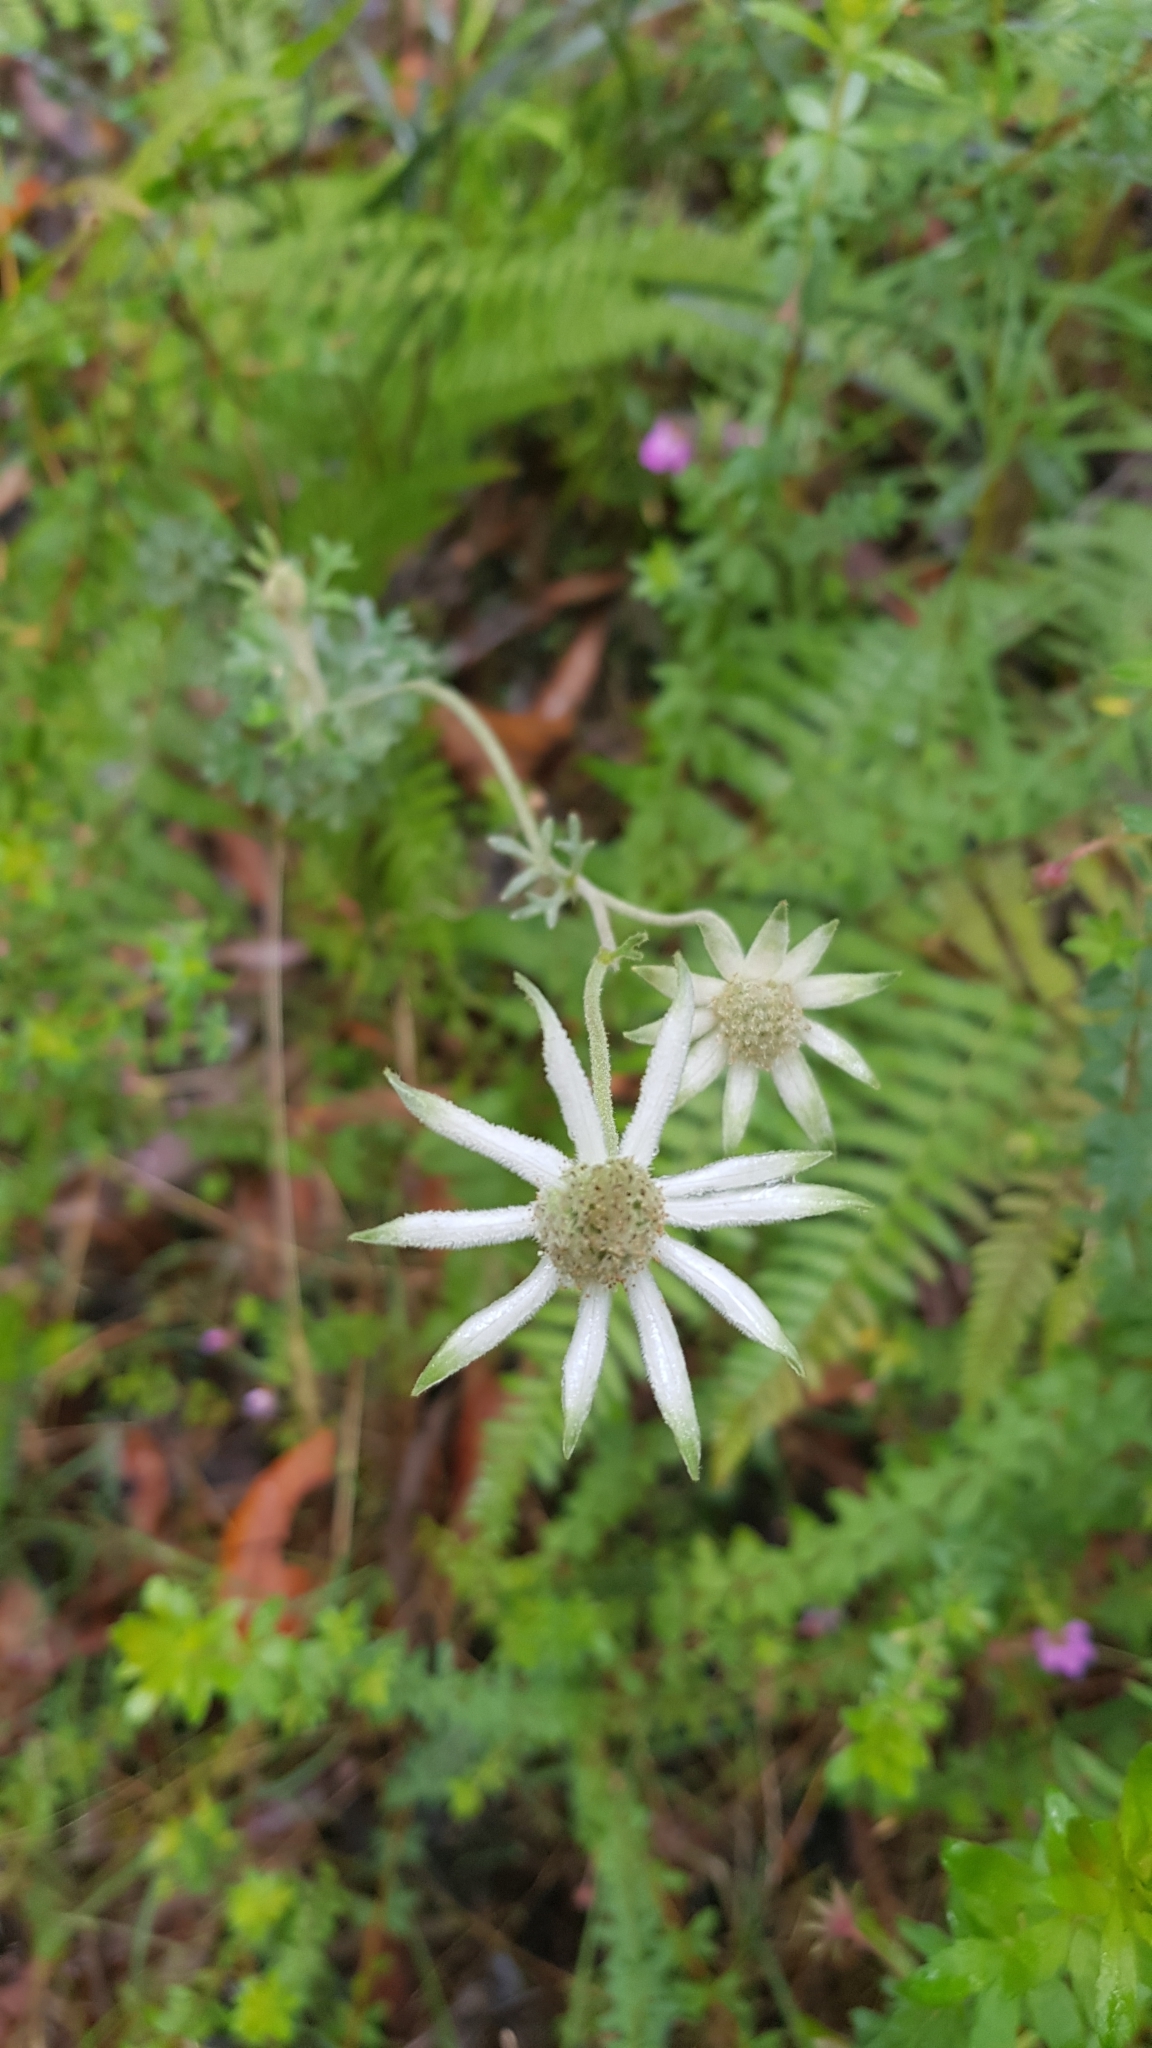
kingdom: Plantae
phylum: Tracheophyta
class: Magnoliopsida
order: Apiales
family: Apiaceae
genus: Actinotus
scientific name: Actinotus helianthi
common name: Flannel-flower
